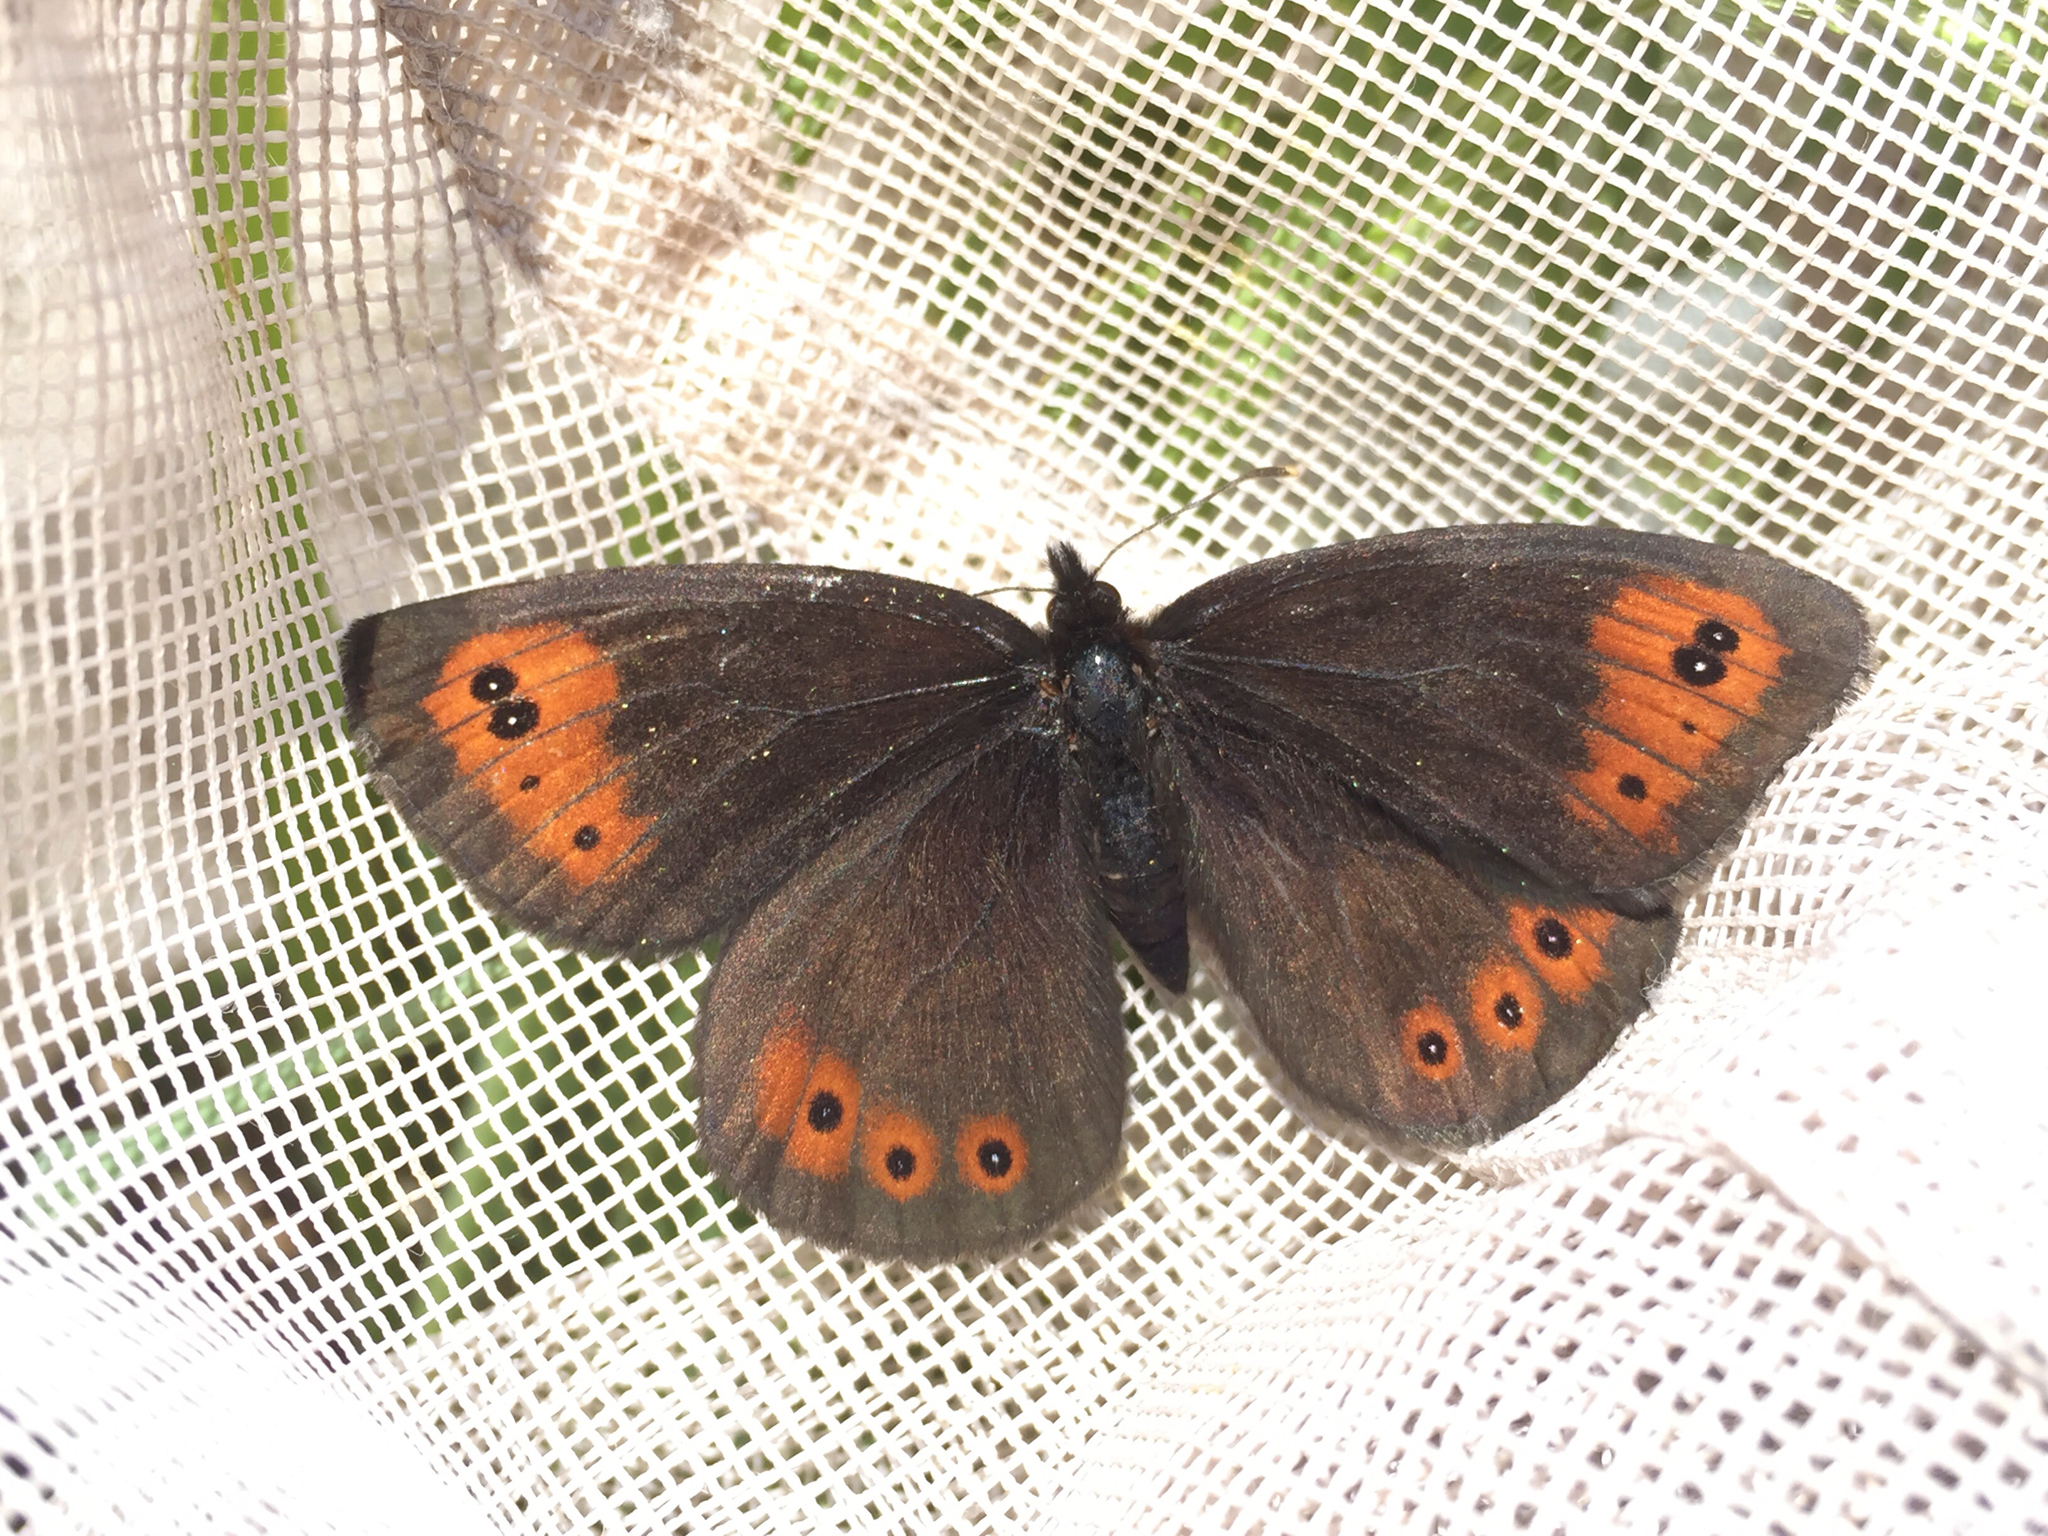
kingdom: Animalia
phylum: Arthropoda
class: Insecta
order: Lepidoptera
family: Nymphalidae
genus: Erebia
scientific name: Erebia epipsodea
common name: Common alpine
